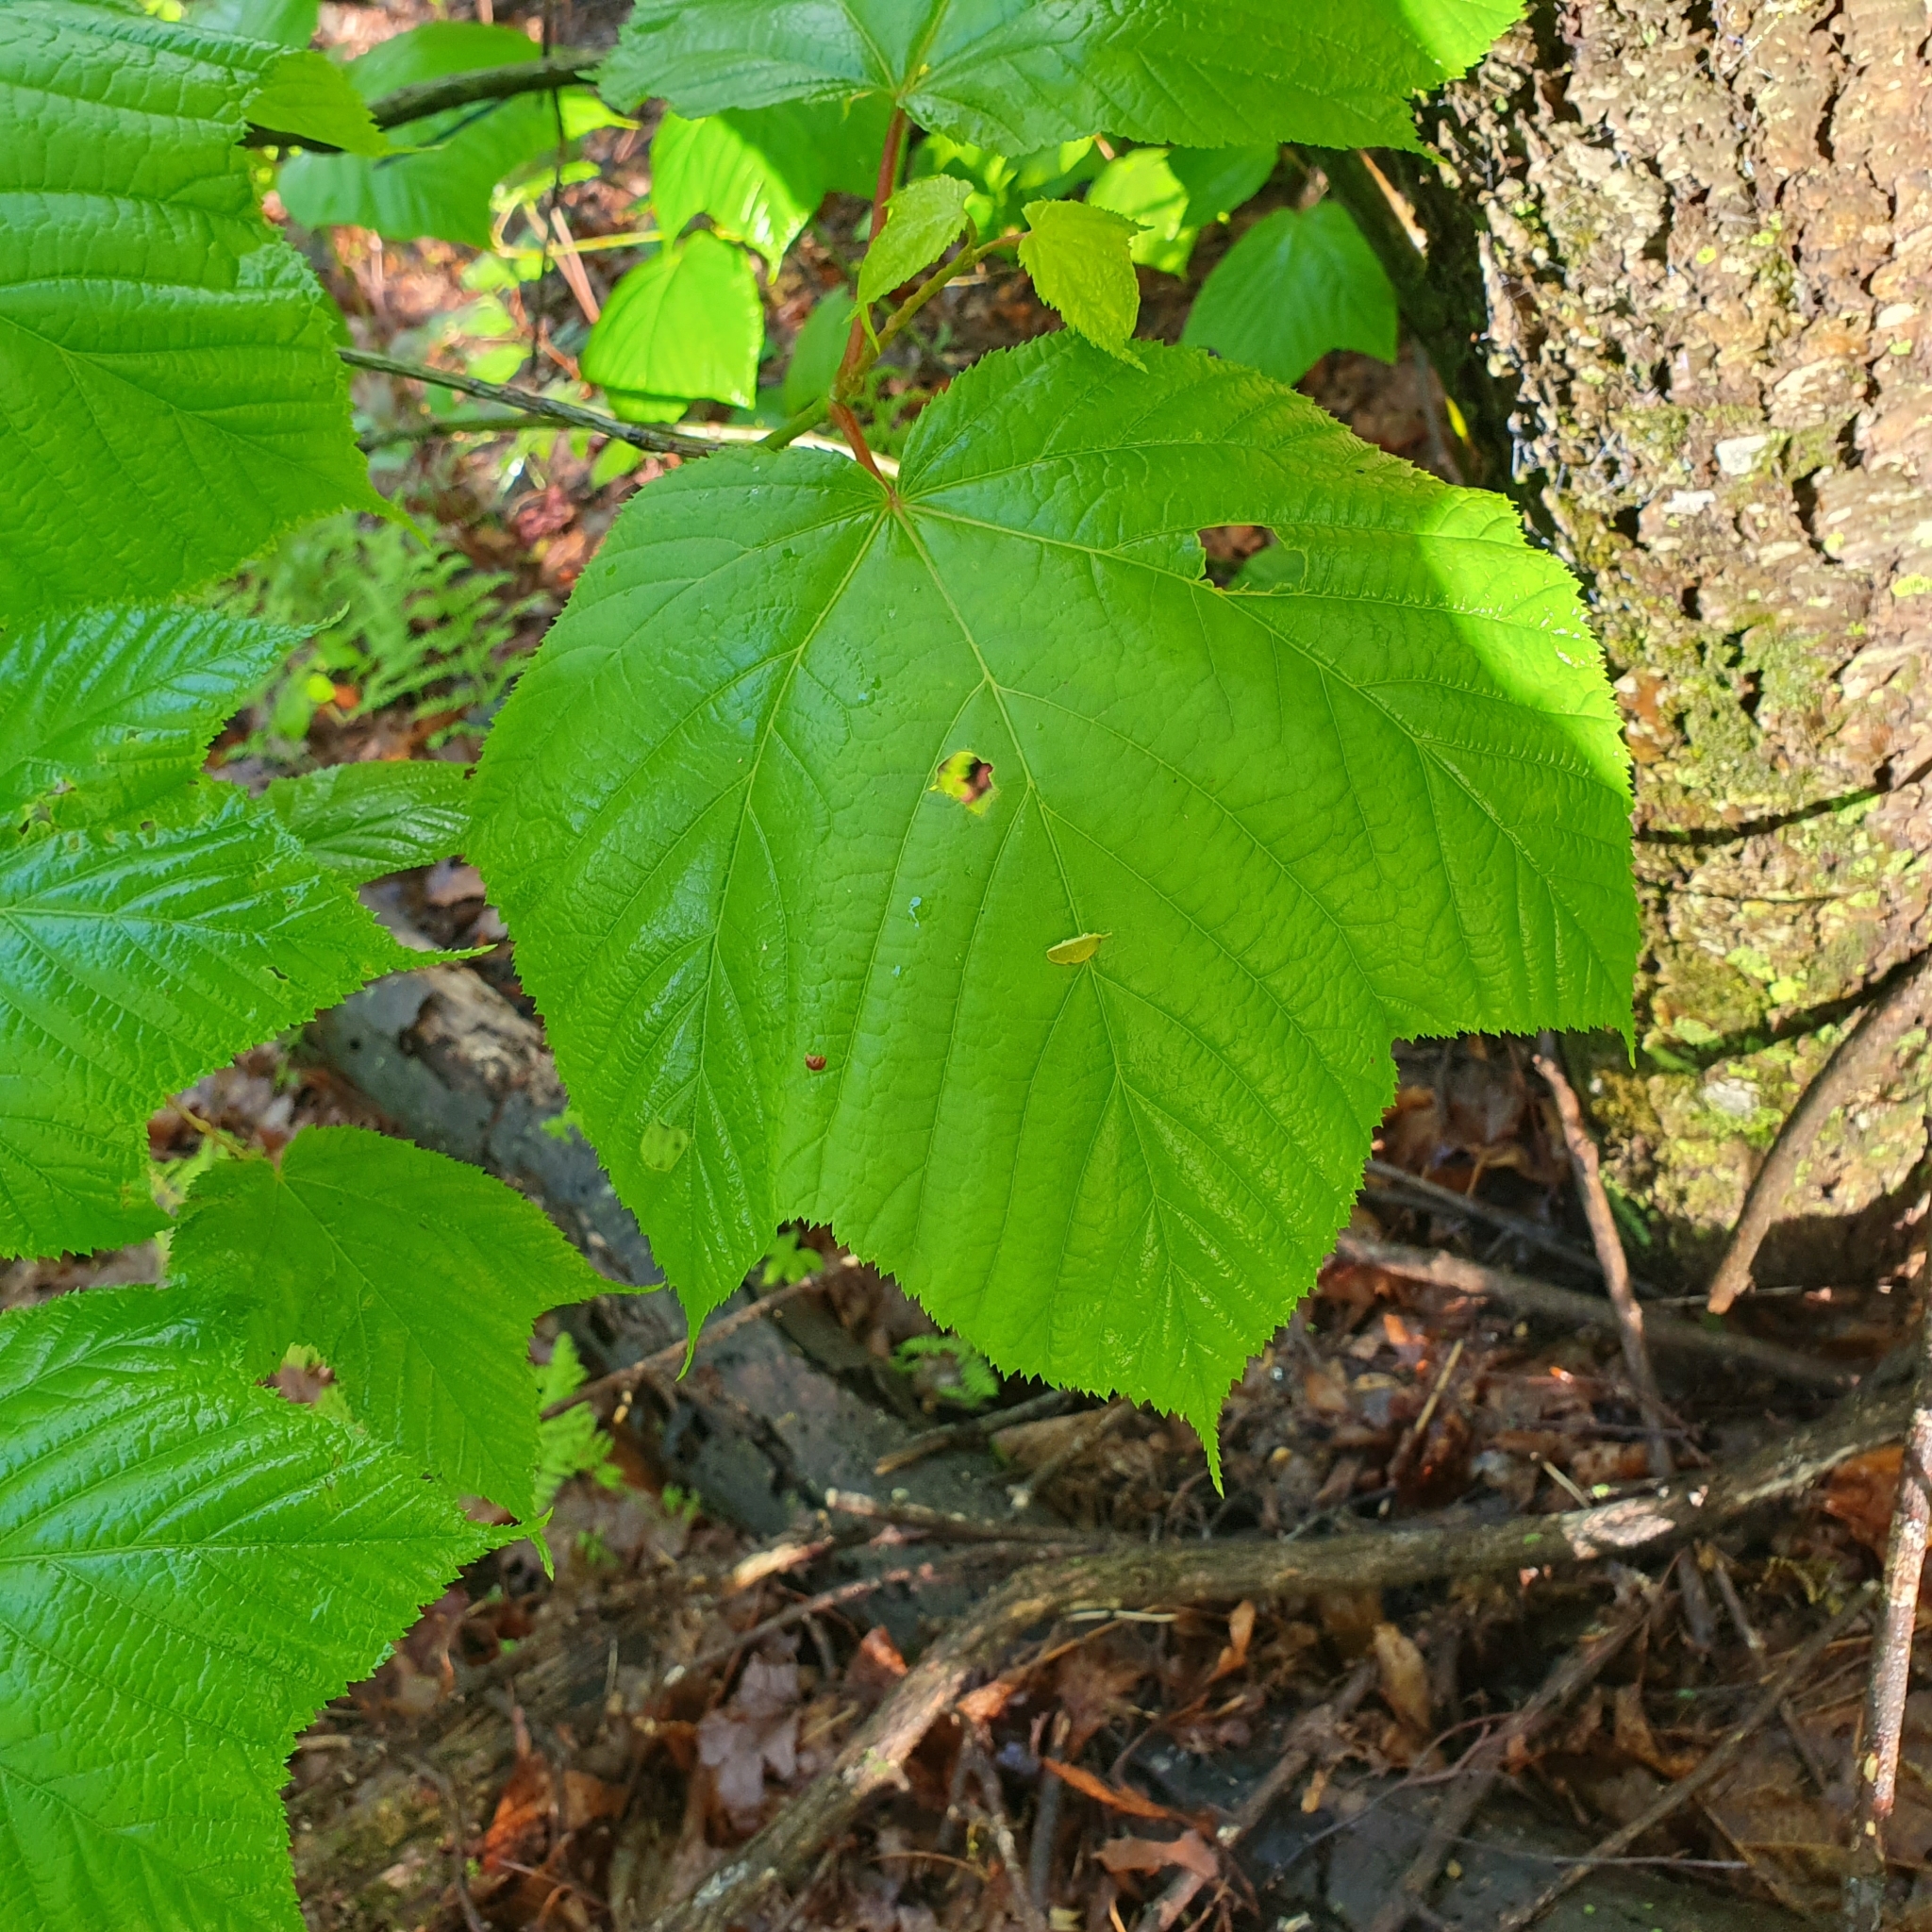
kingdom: Plantae
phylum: Tracheophyta
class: Magnoliopsida
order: Sapindales
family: Sapindaceae
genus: Acer
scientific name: Acer pensylvanicum
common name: Moosewood
